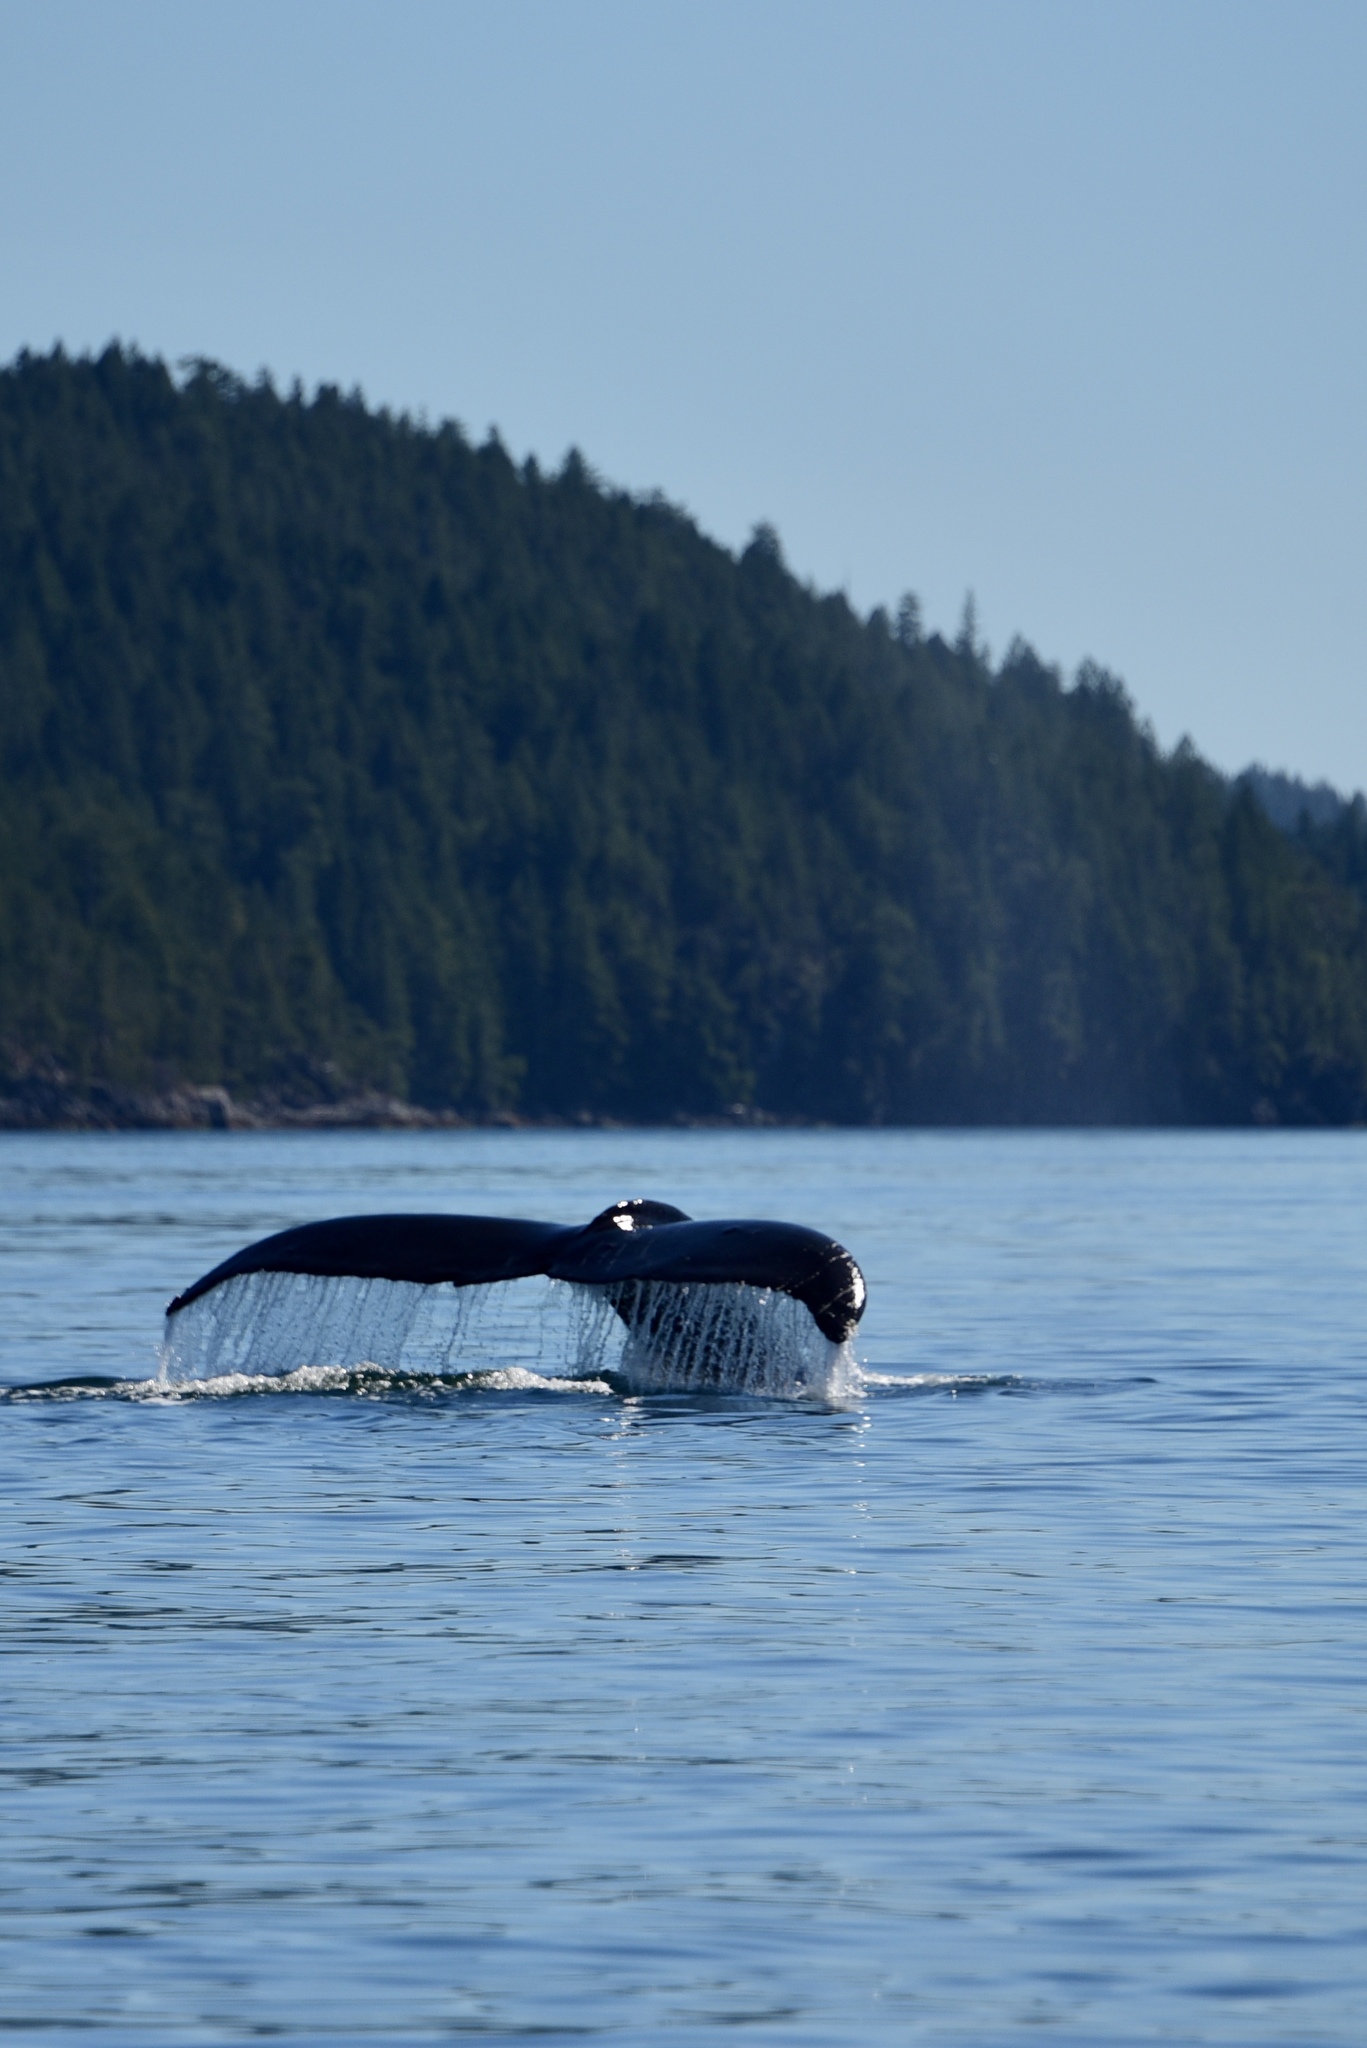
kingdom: Animalia
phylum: Chordata
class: Mammalia
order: Cetacea
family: Balaenopteridae
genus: Megaptera
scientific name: Megaptera novaeangliae
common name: Humpback whale
